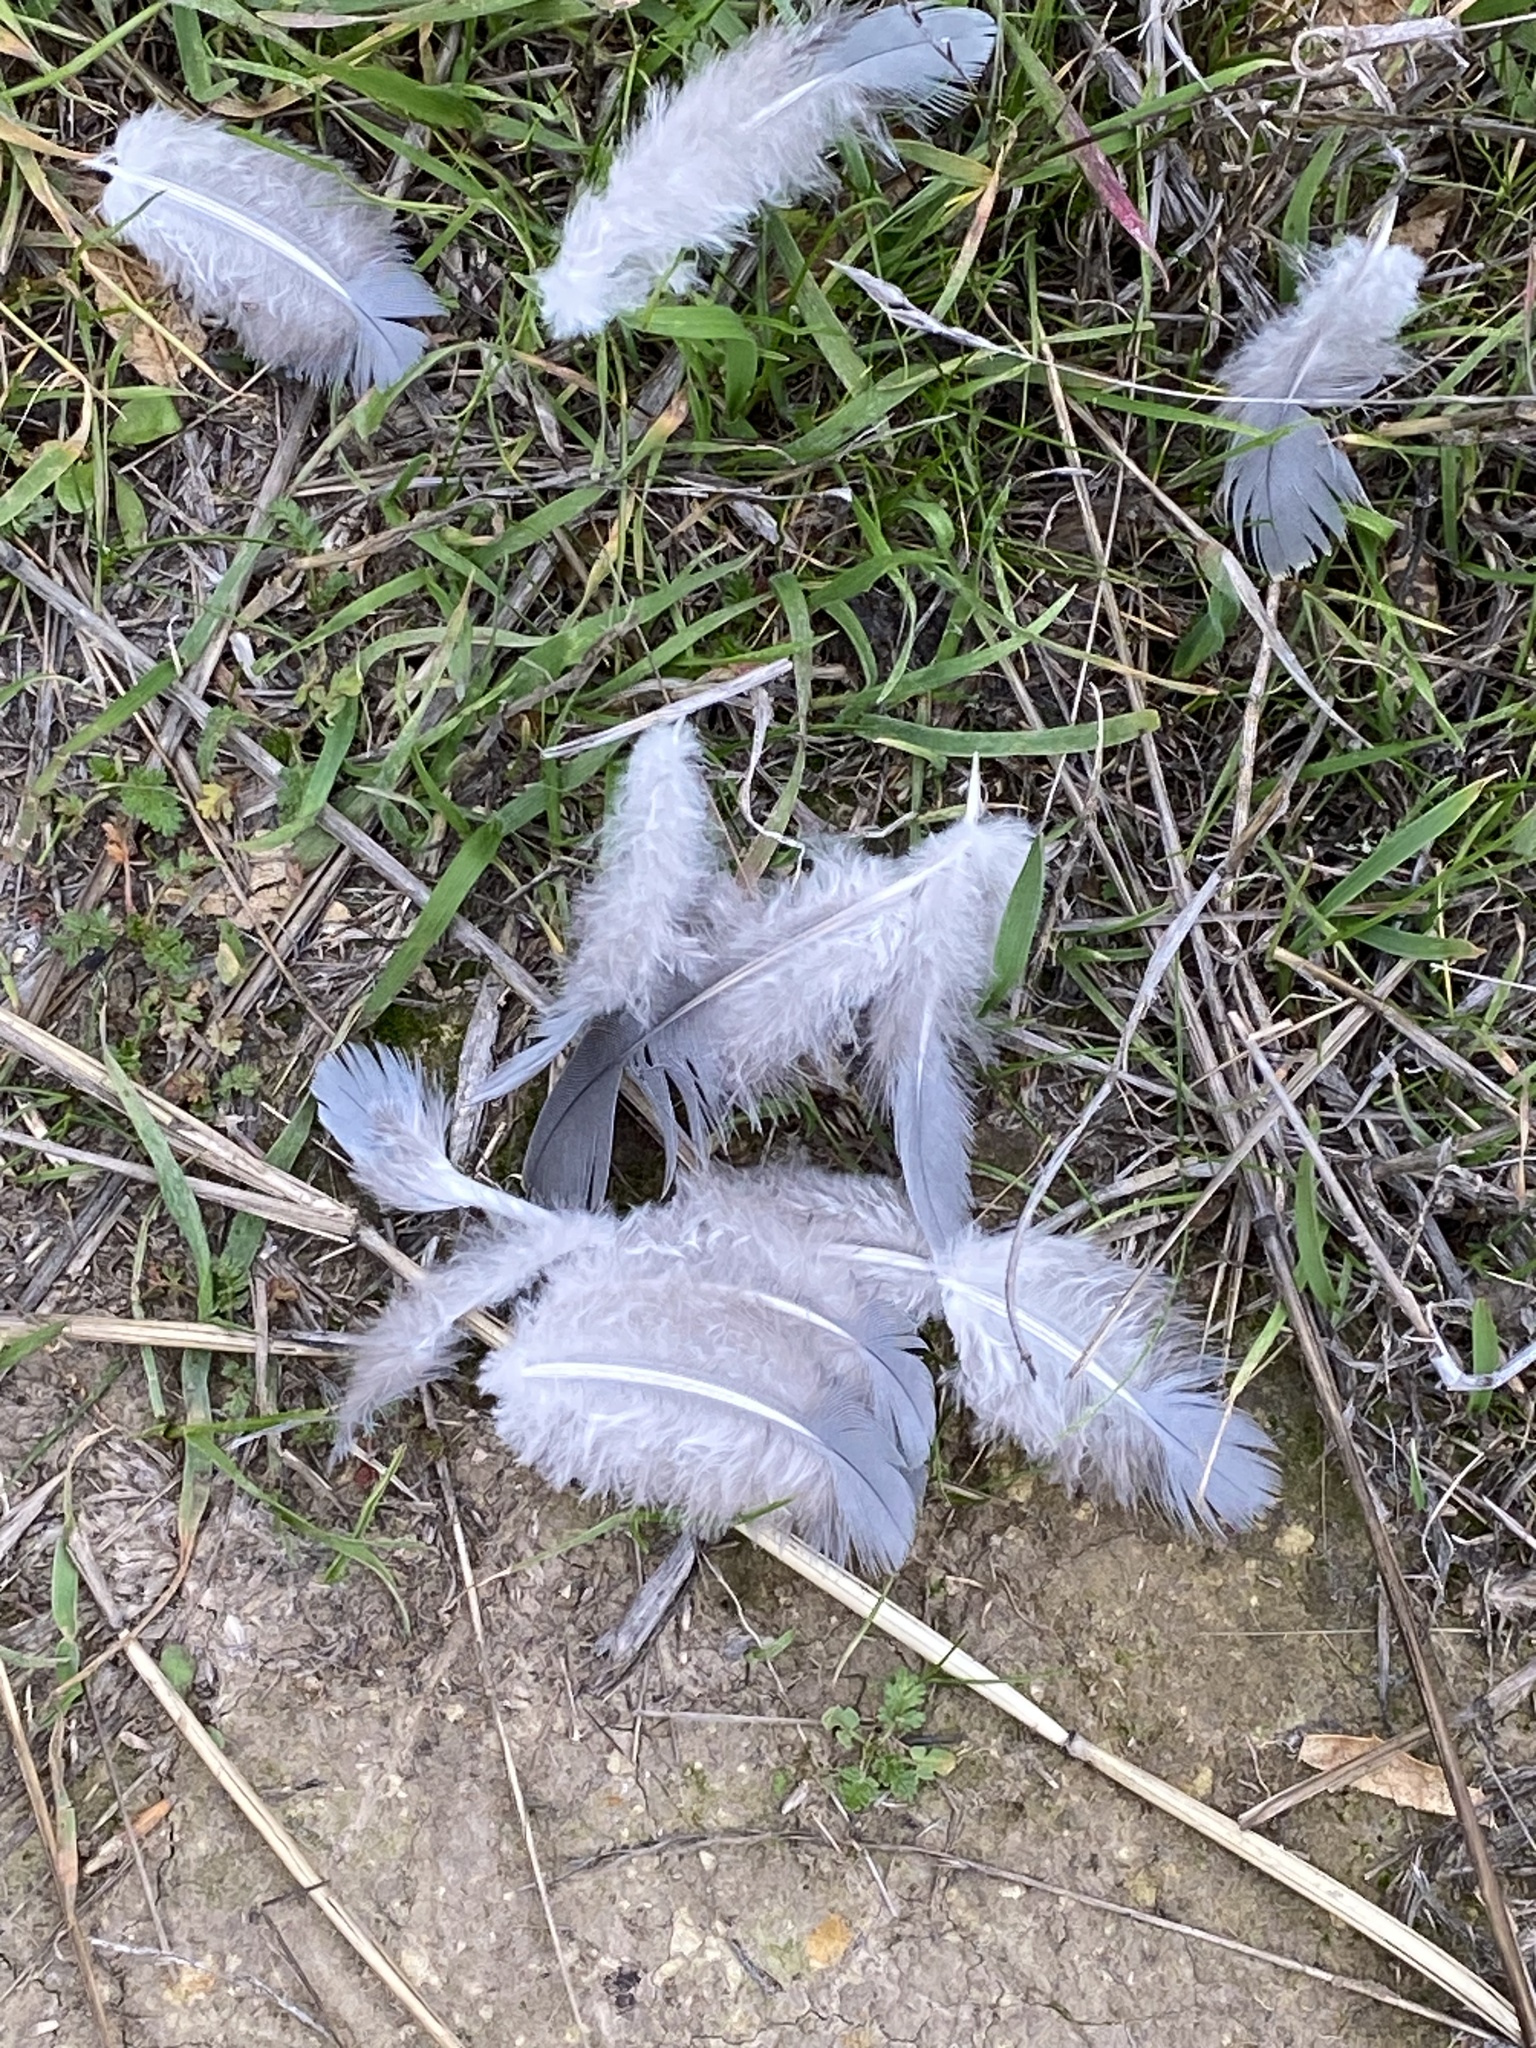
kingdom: Animalia
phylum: Chordata
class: Aves
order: Columbiformes
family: Columbidae
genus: Patagioenas
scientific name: Patagioenas fasciata
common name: Band-tailed pigeon
